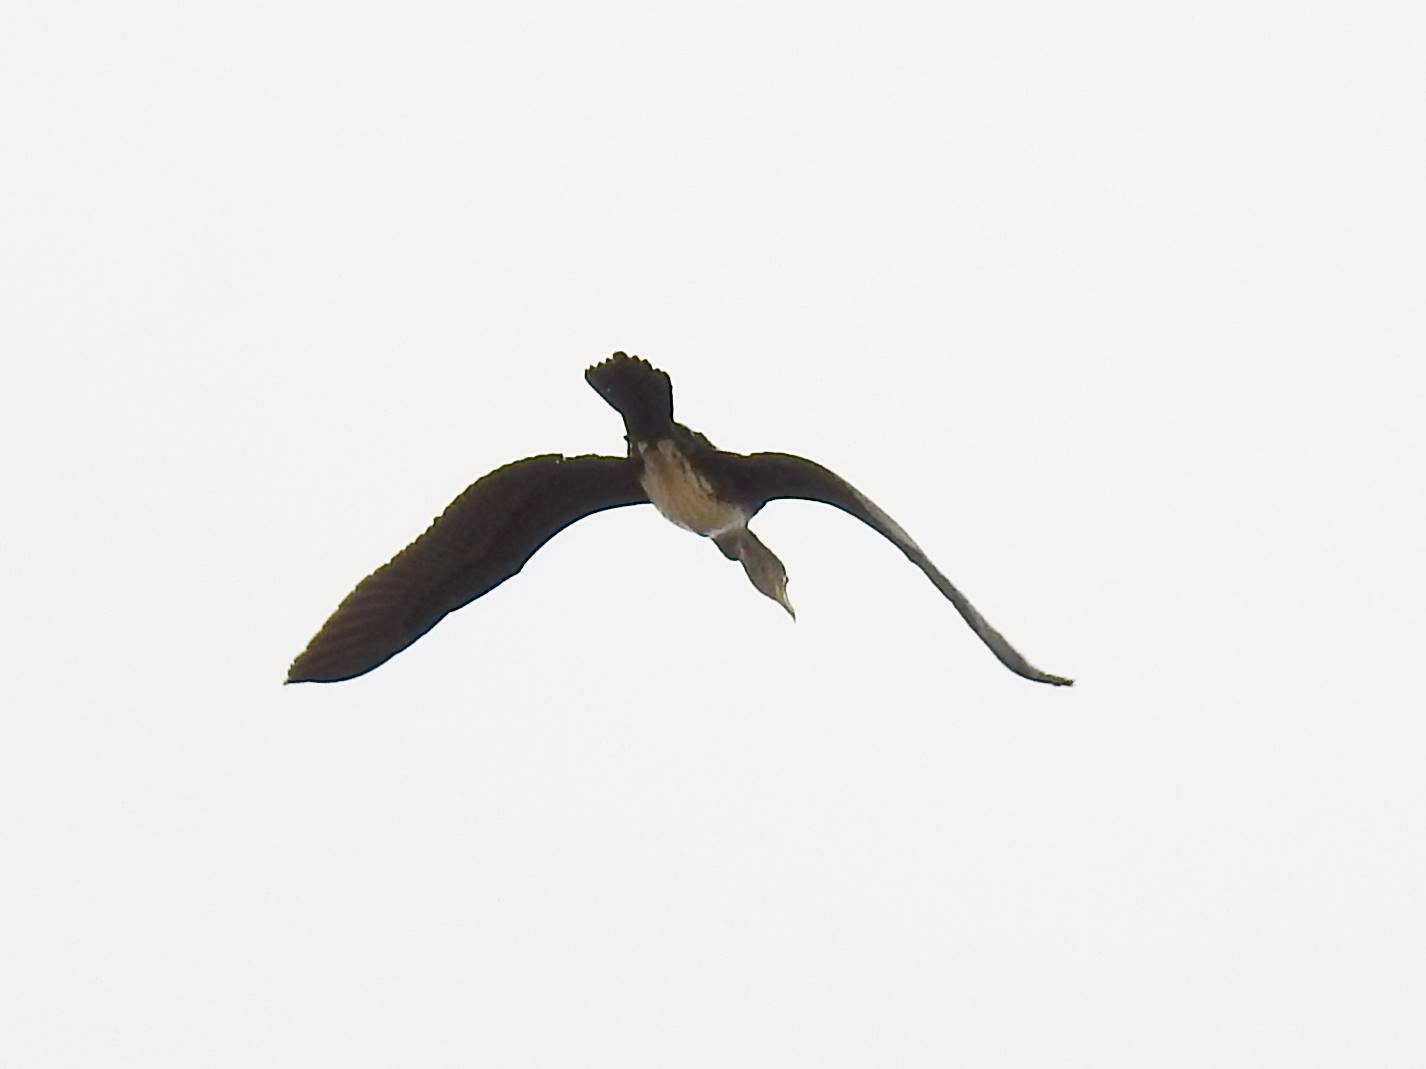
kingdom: Animalia
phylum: Chordata
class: Aves
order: Suliformes
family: Phalacrocoracidae
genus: Phalacrocorax
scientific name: Phalacrocorax carbo
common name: Great cormorant
